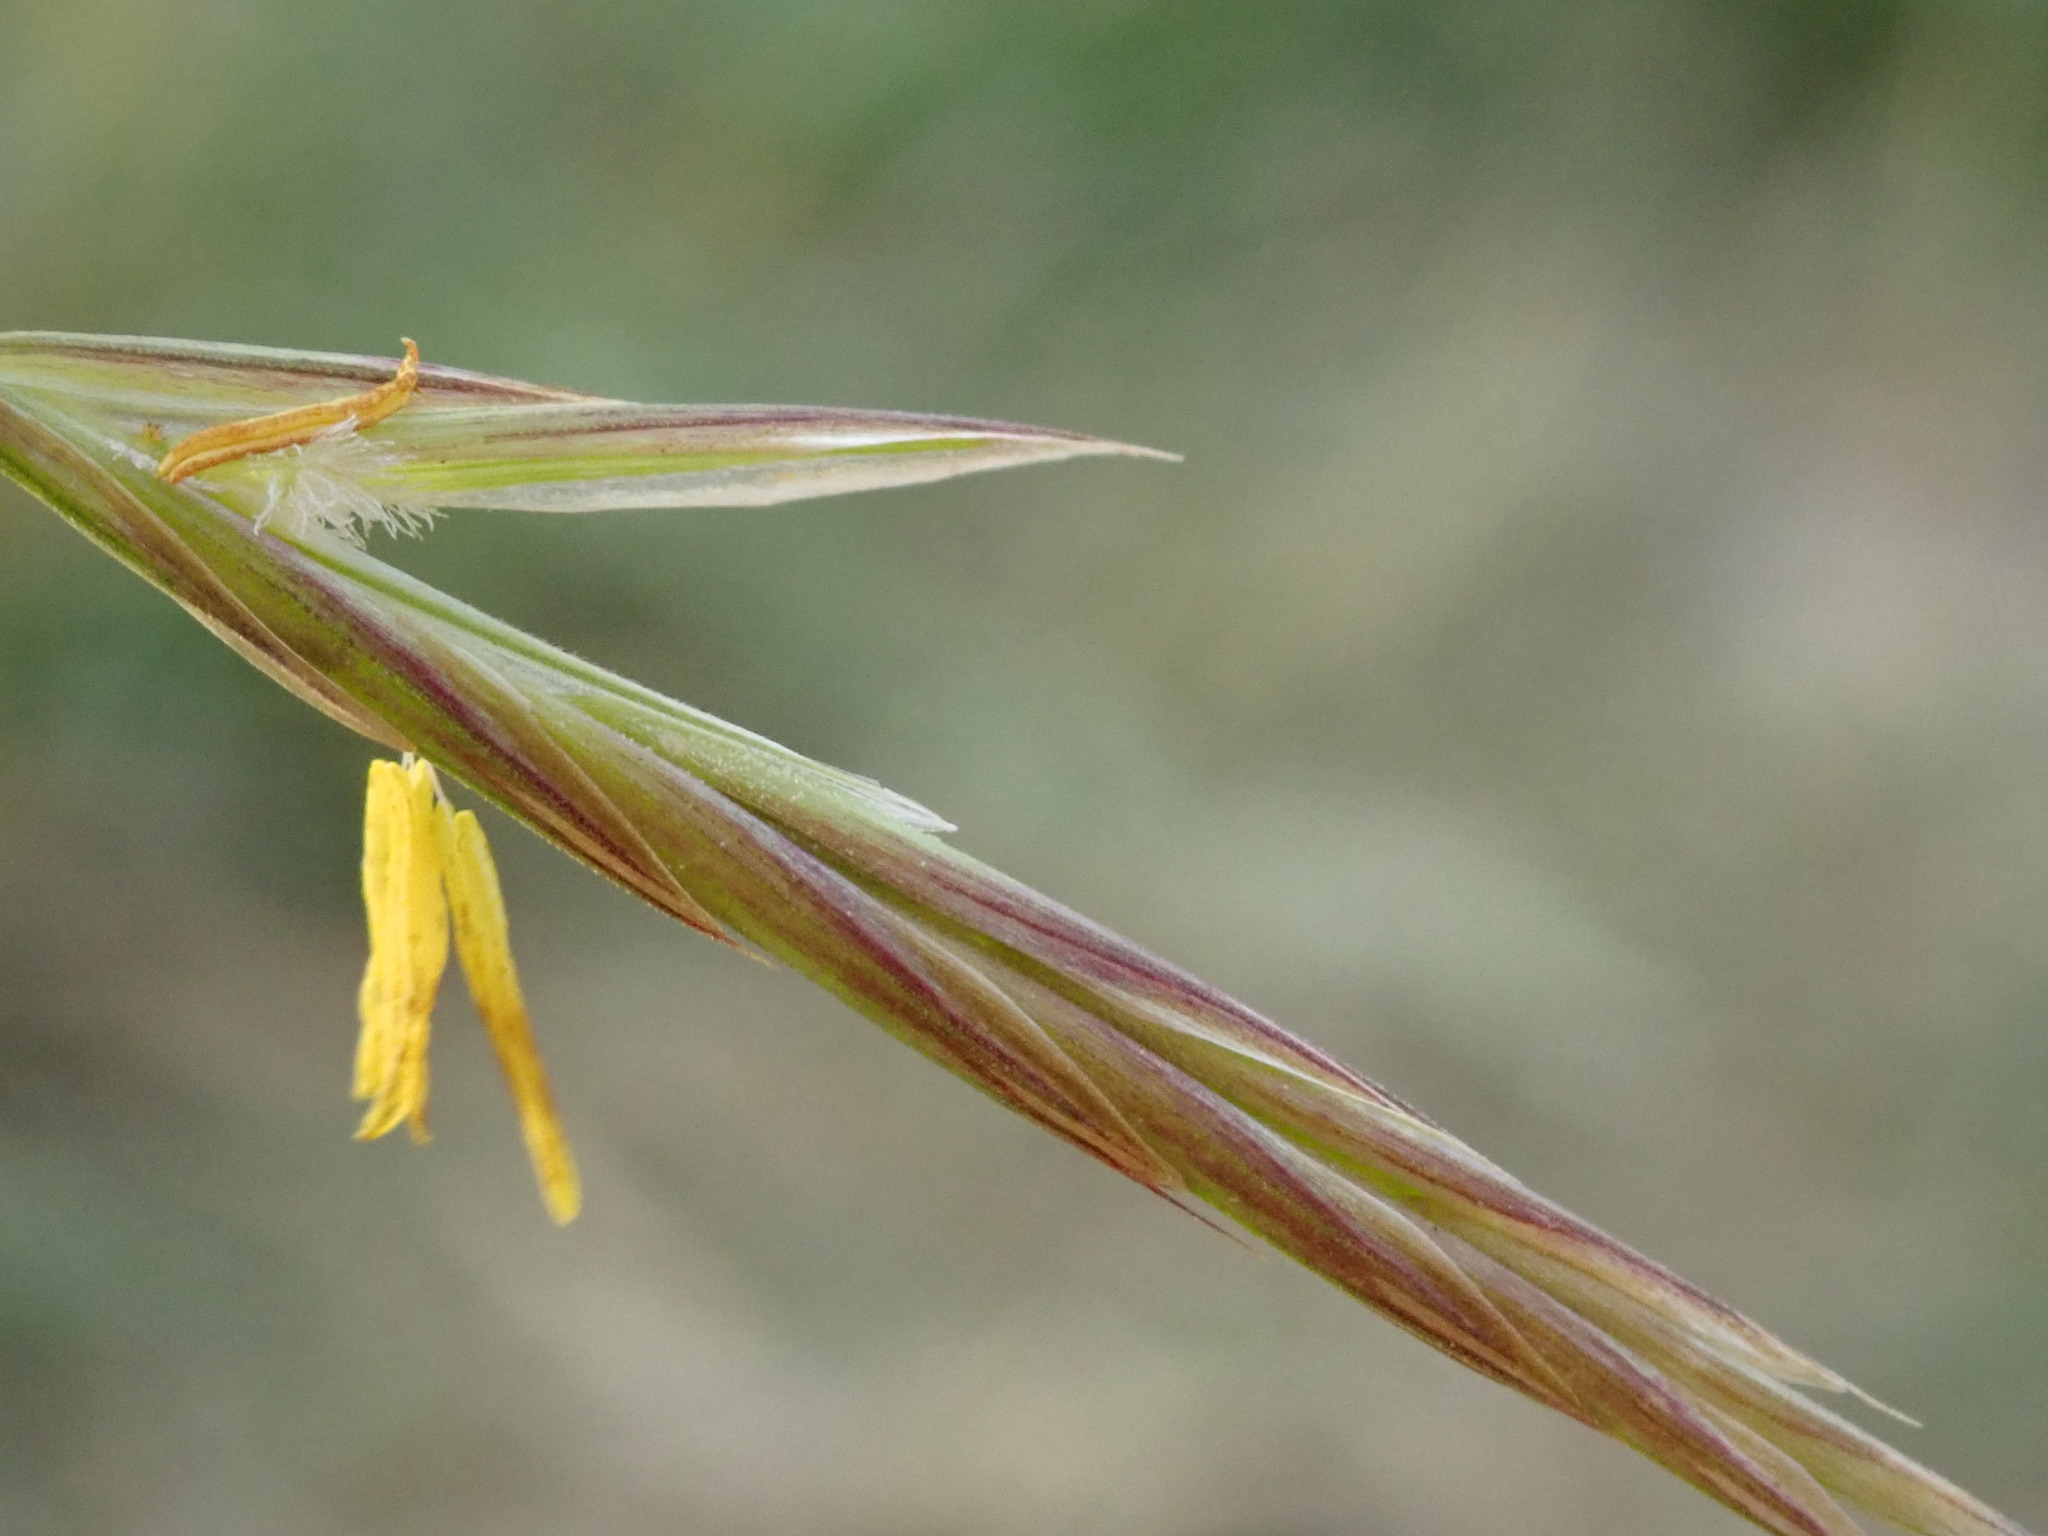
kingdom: Plantae
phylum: Tracheophyta
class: Liliopsida
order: Poales
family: Poaceae
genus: Bromus
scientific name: Bromus inermis
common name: Smooth brome
